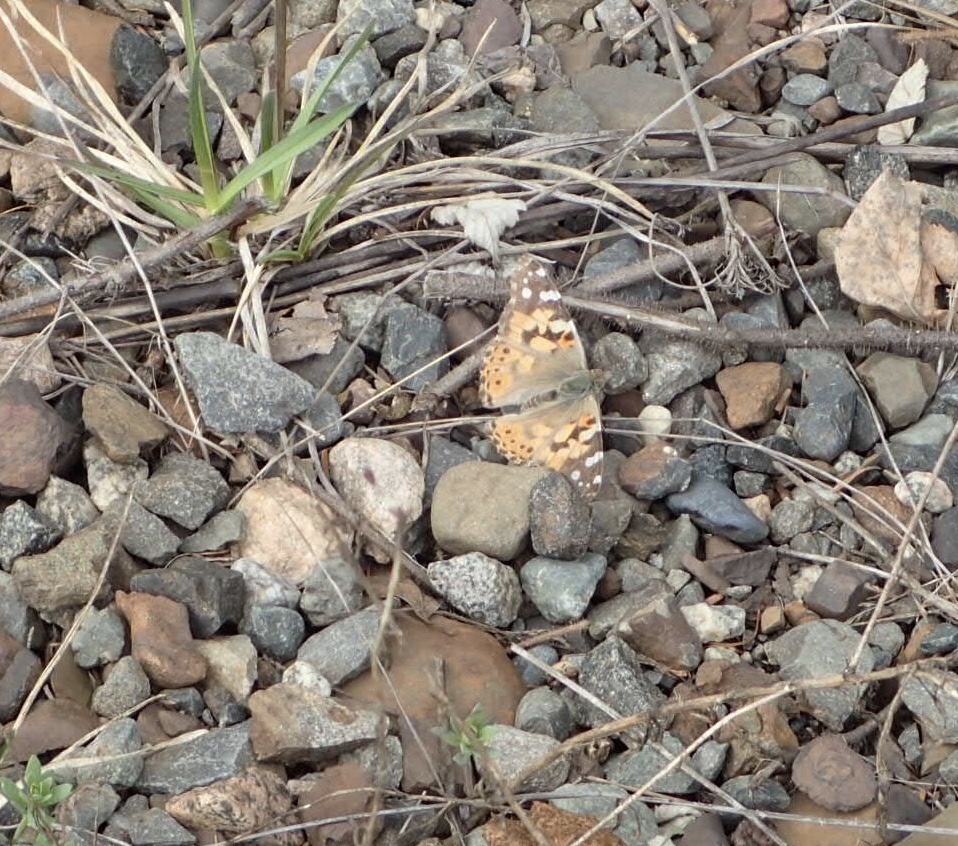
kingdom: Animalia
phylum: Arthropoda
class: Insecta
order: Lepidoptera
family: Nymphalidae
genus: Vanessa
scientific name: Vanessa cardui
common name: Painted lady
